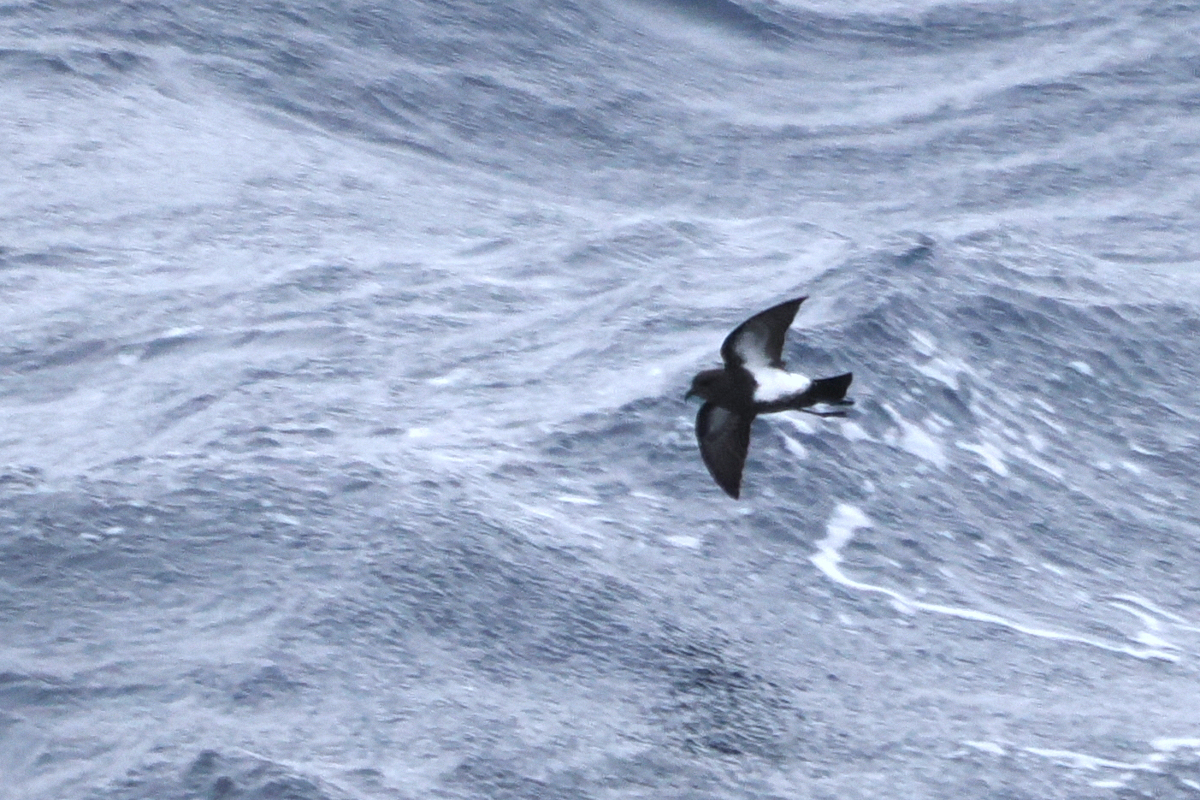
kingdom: Animalia
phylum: Chordata
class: Aves
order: Procellariiformes
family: Hydrobatidae
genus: Fregetta
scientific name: Fregetta tropica
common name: Black-bellied storm-petrel
